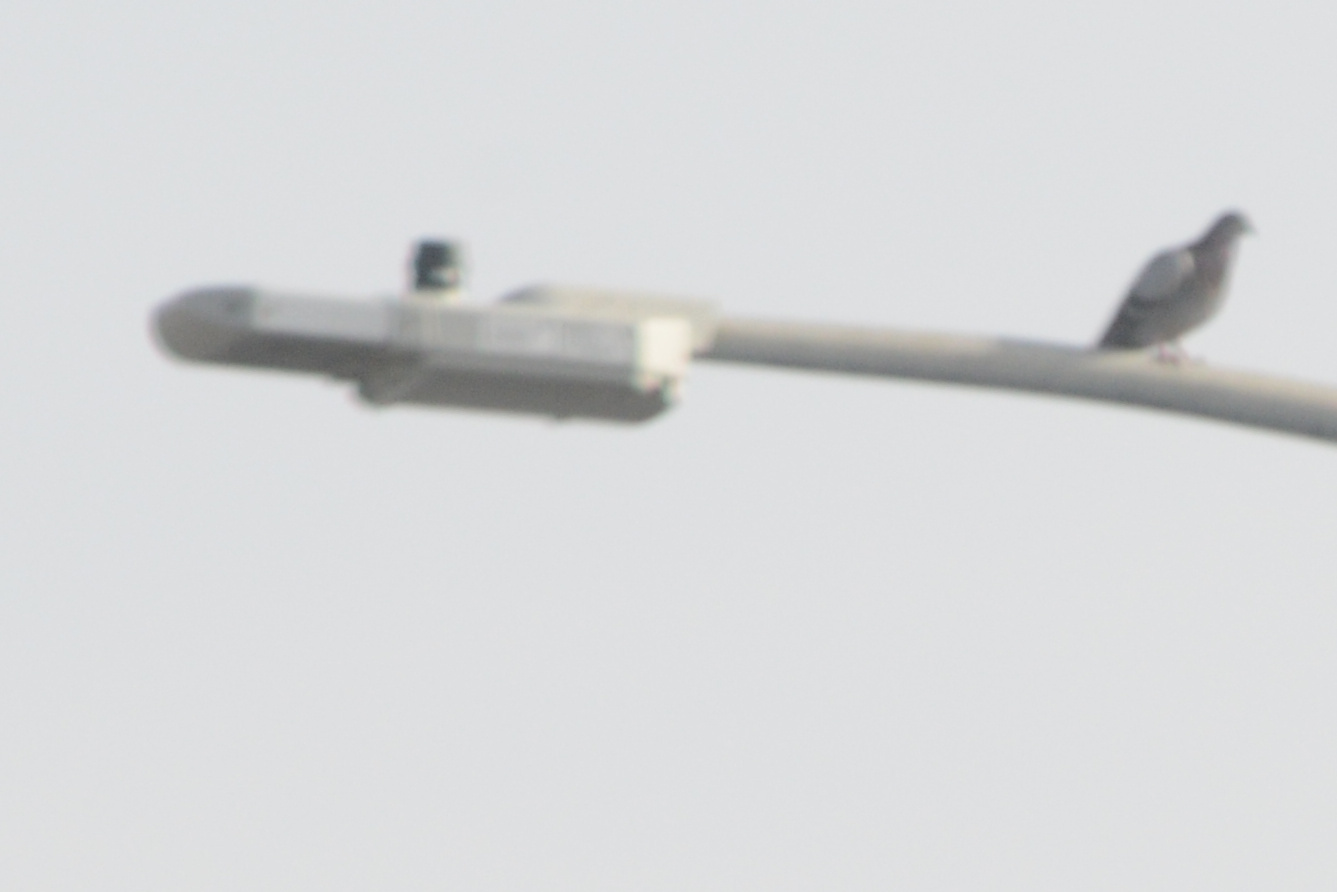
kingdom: Animalia
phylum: Chordata
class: Aves
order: Columbiformes
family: Columbidae
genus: Columba
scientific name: Columba livia
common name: Rock pigeon
